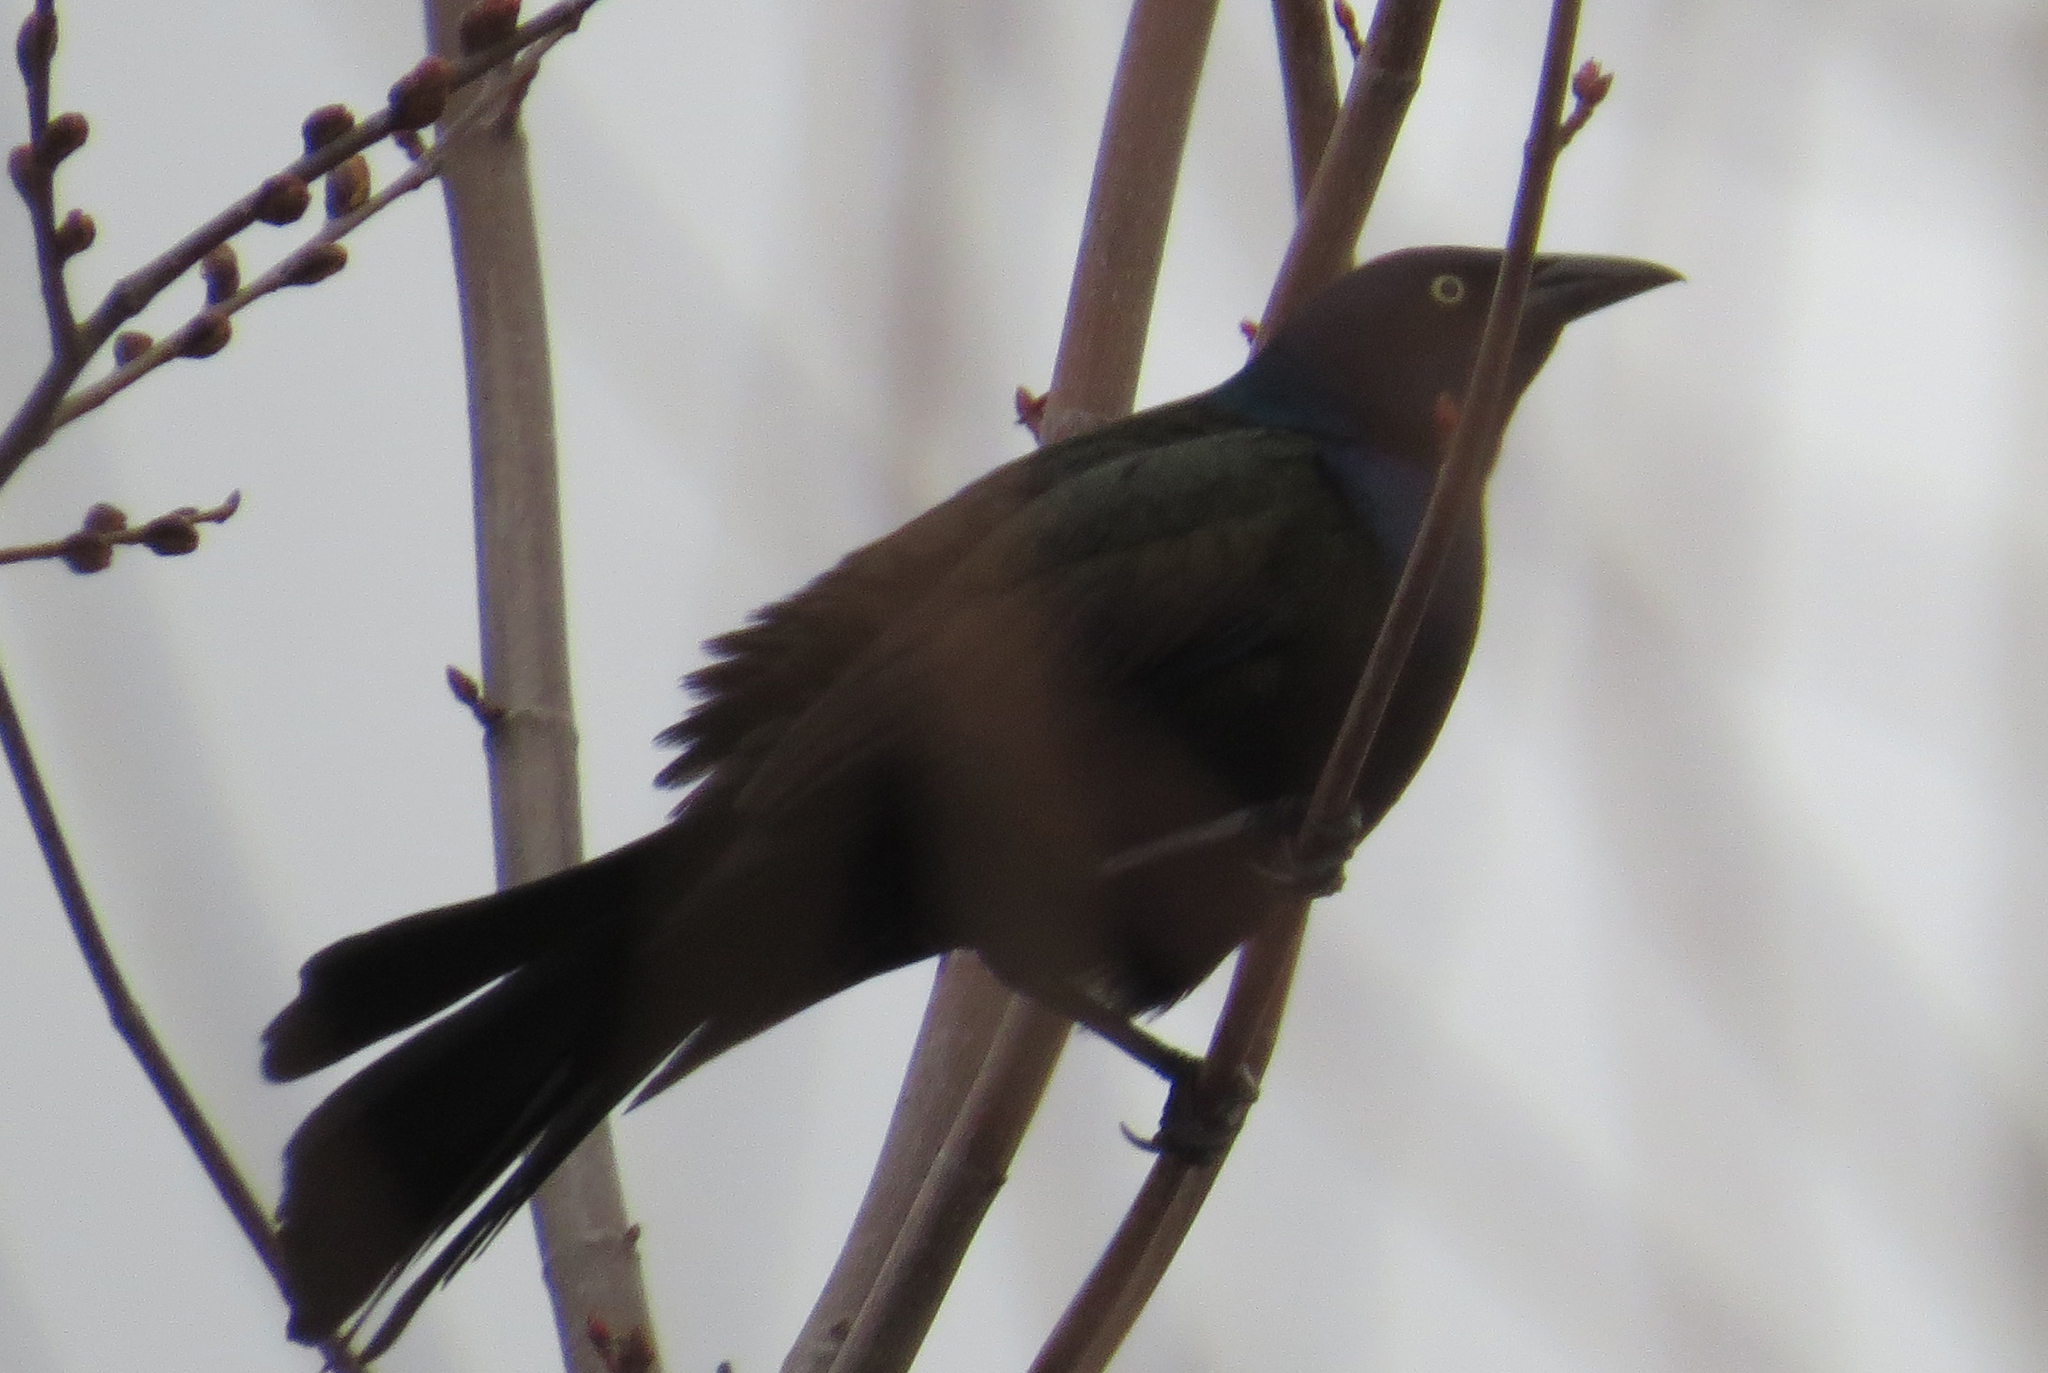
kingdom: Animalia
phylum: Chordata
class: Aves
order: Passeriformes
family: Icteridae
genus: Quiscalus
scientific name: Quiscalus quiscula
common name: Common grackle
